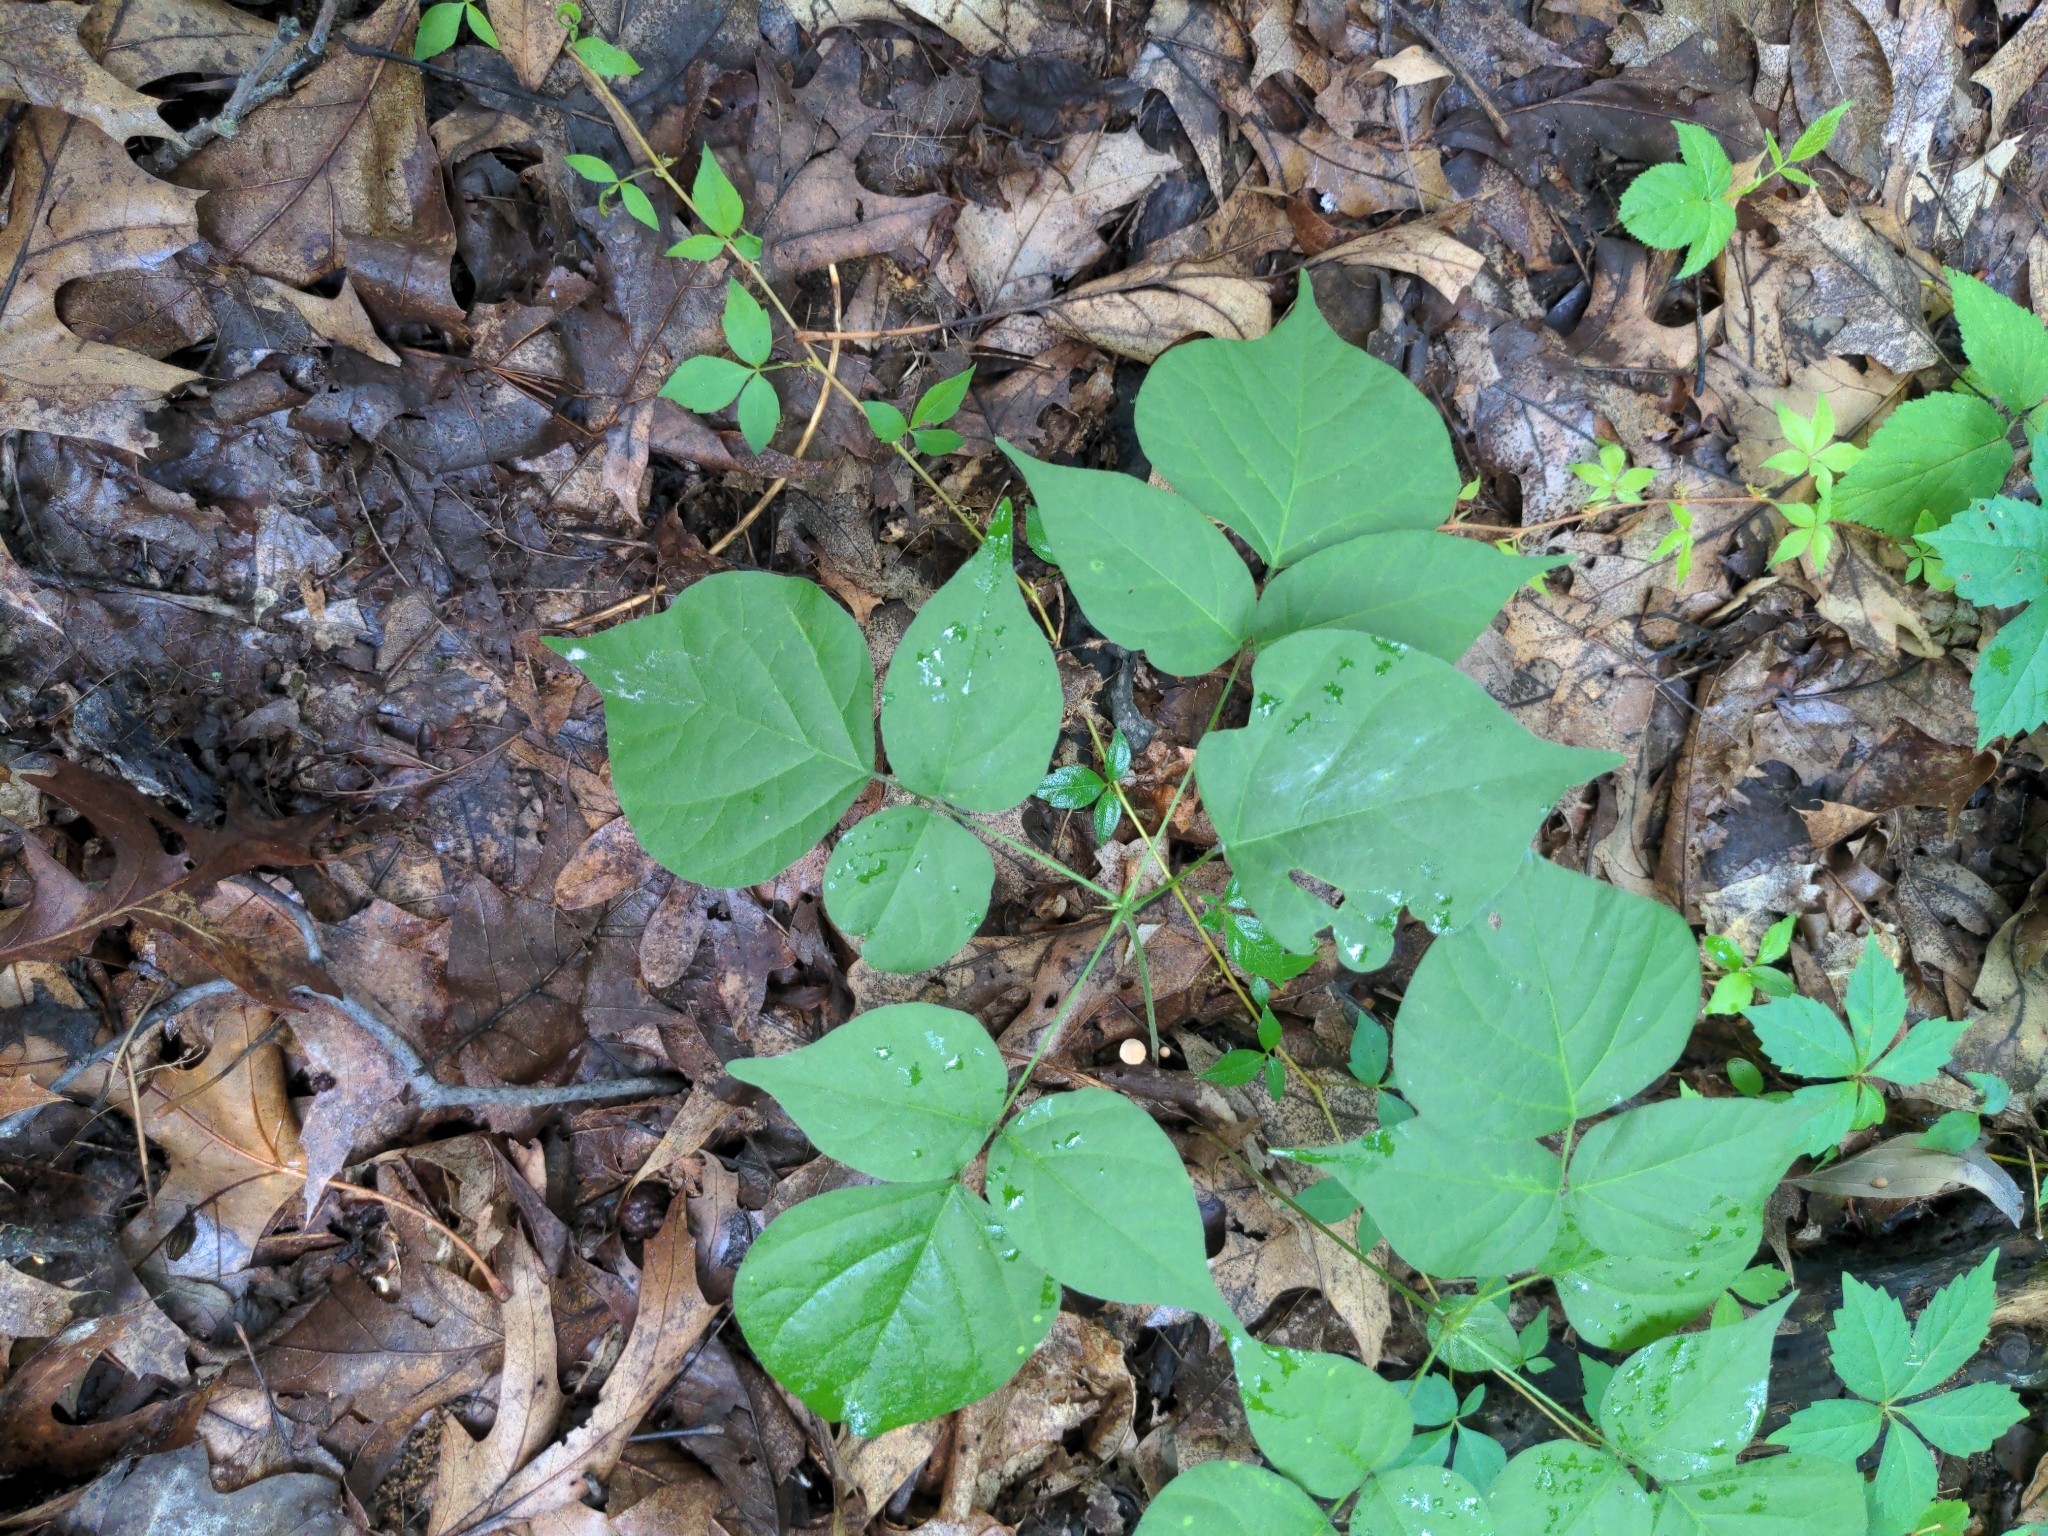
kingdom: Plantae
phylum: Tracheophyta
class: Magnoliopsida
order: Fabales
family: Fabaceae
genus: Hylodesmum
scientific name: Hylodesmum glutinosum
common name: Clustered-leaved tick-trefoil
